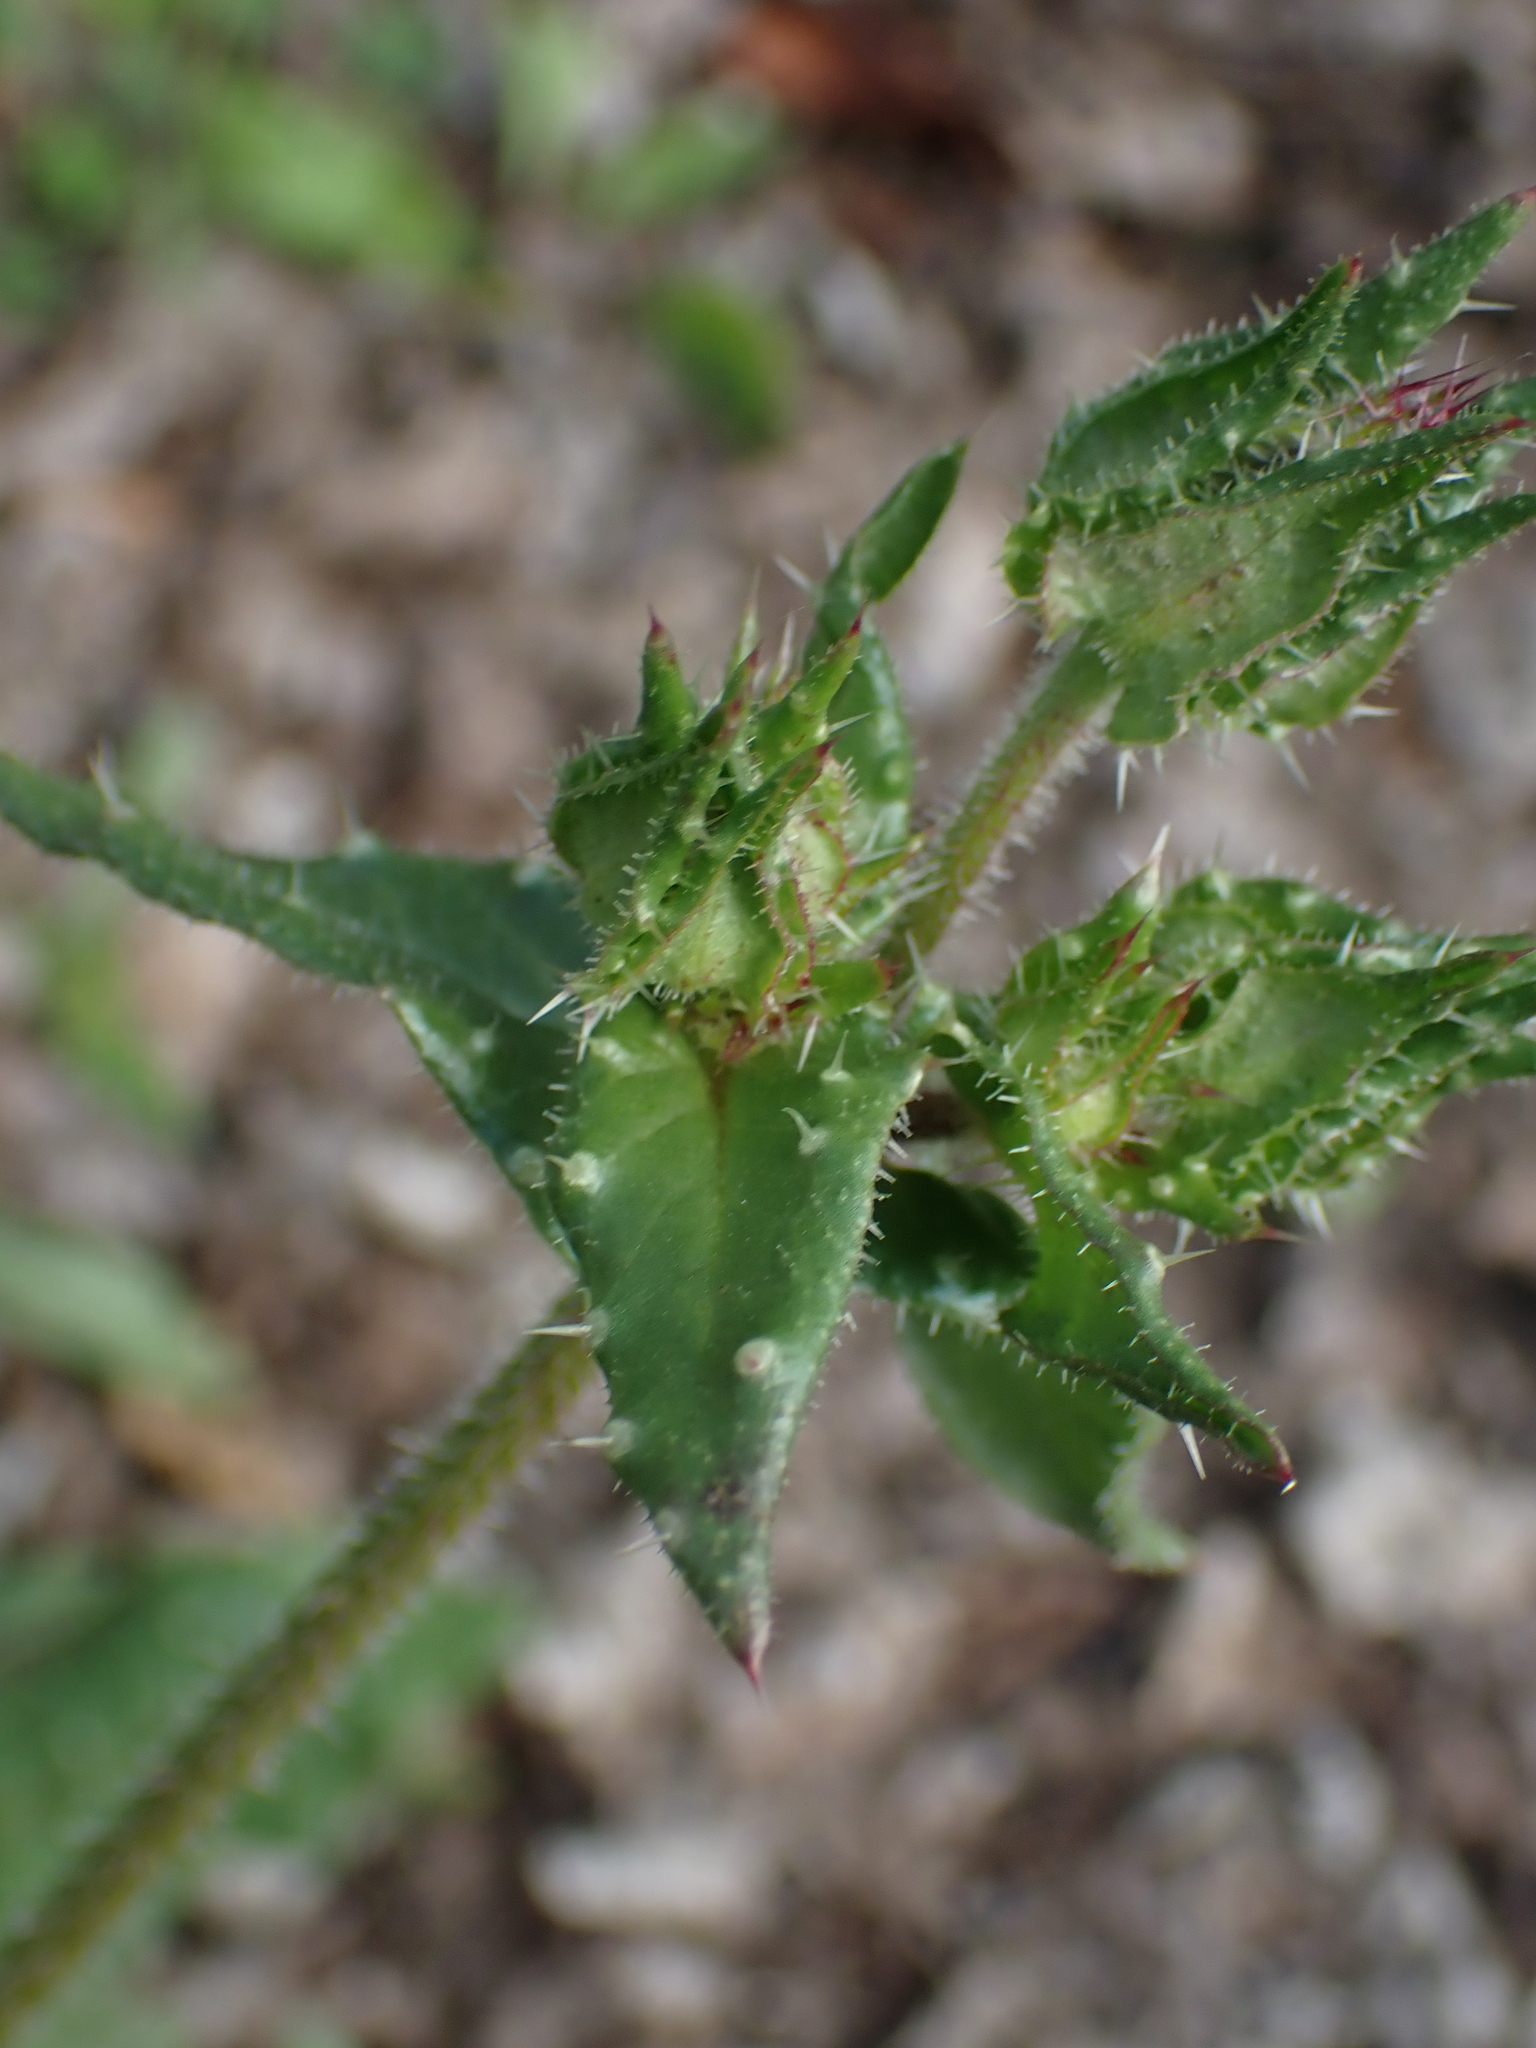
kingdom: Plantae
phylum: Tracheophyta
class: Magnoliopsida
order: Asterales
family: Asteraceae
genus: Helminthotheca
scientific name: Helminthotheca echioides
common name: Ox-tongue
